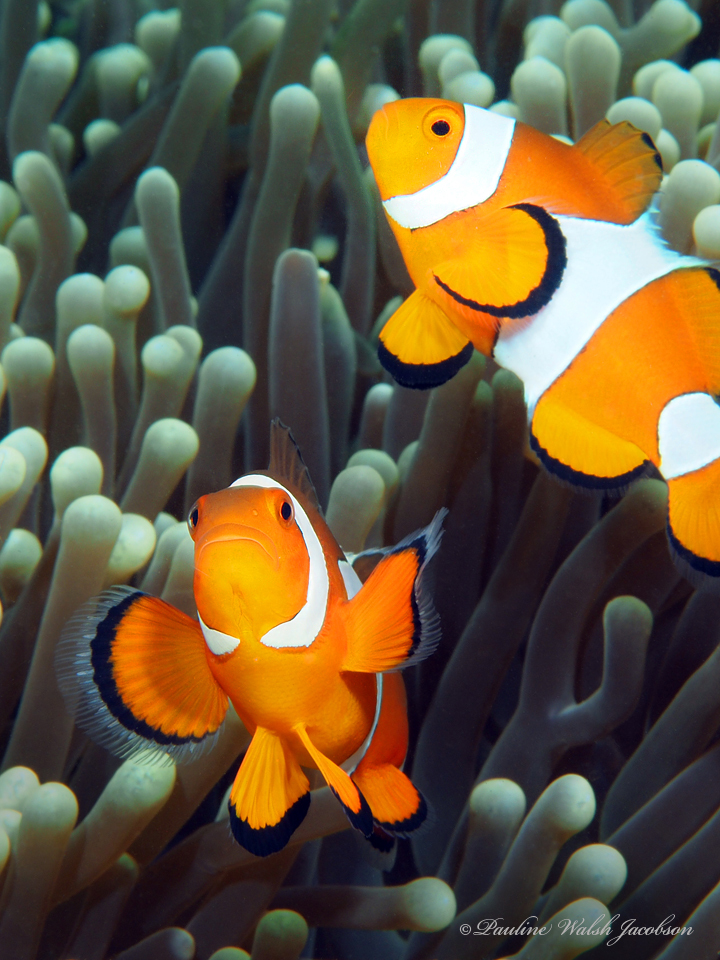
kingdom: Animalia
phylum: Chordata
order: Perciformes
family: Pomacentridae
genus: Amphiprion
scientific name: Amphiprion ocellaris
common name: Clown anemonefish
